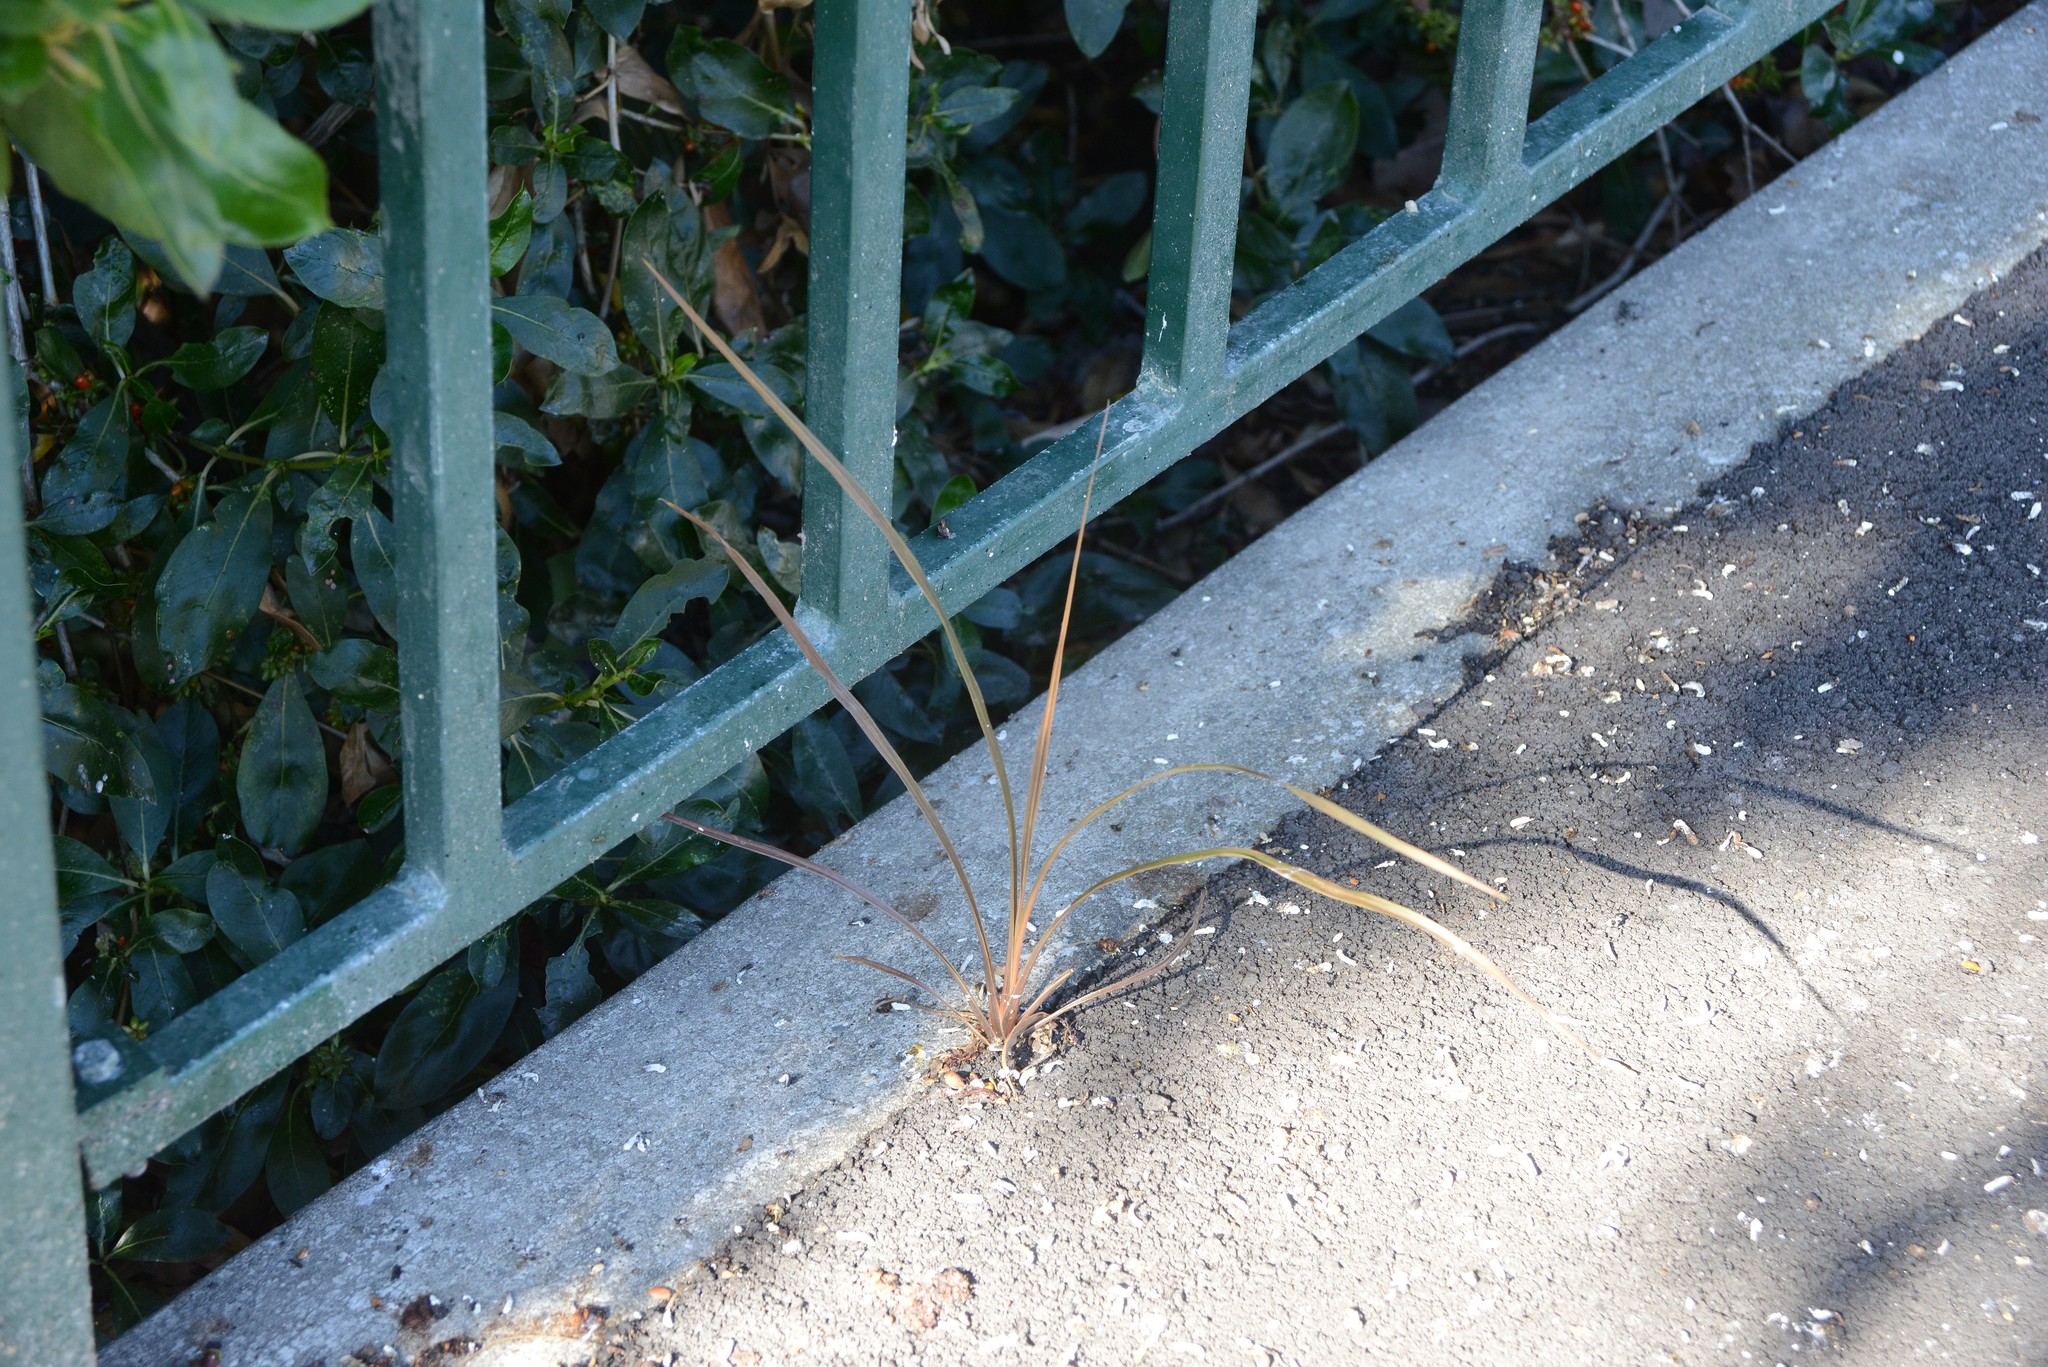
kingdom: Plantae
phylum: Tracheophyta
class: Liliopsida
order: Asparagales
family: Asparagaceae
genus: Cordyline
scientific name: Cordyline australis
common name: Cabbage-palm
